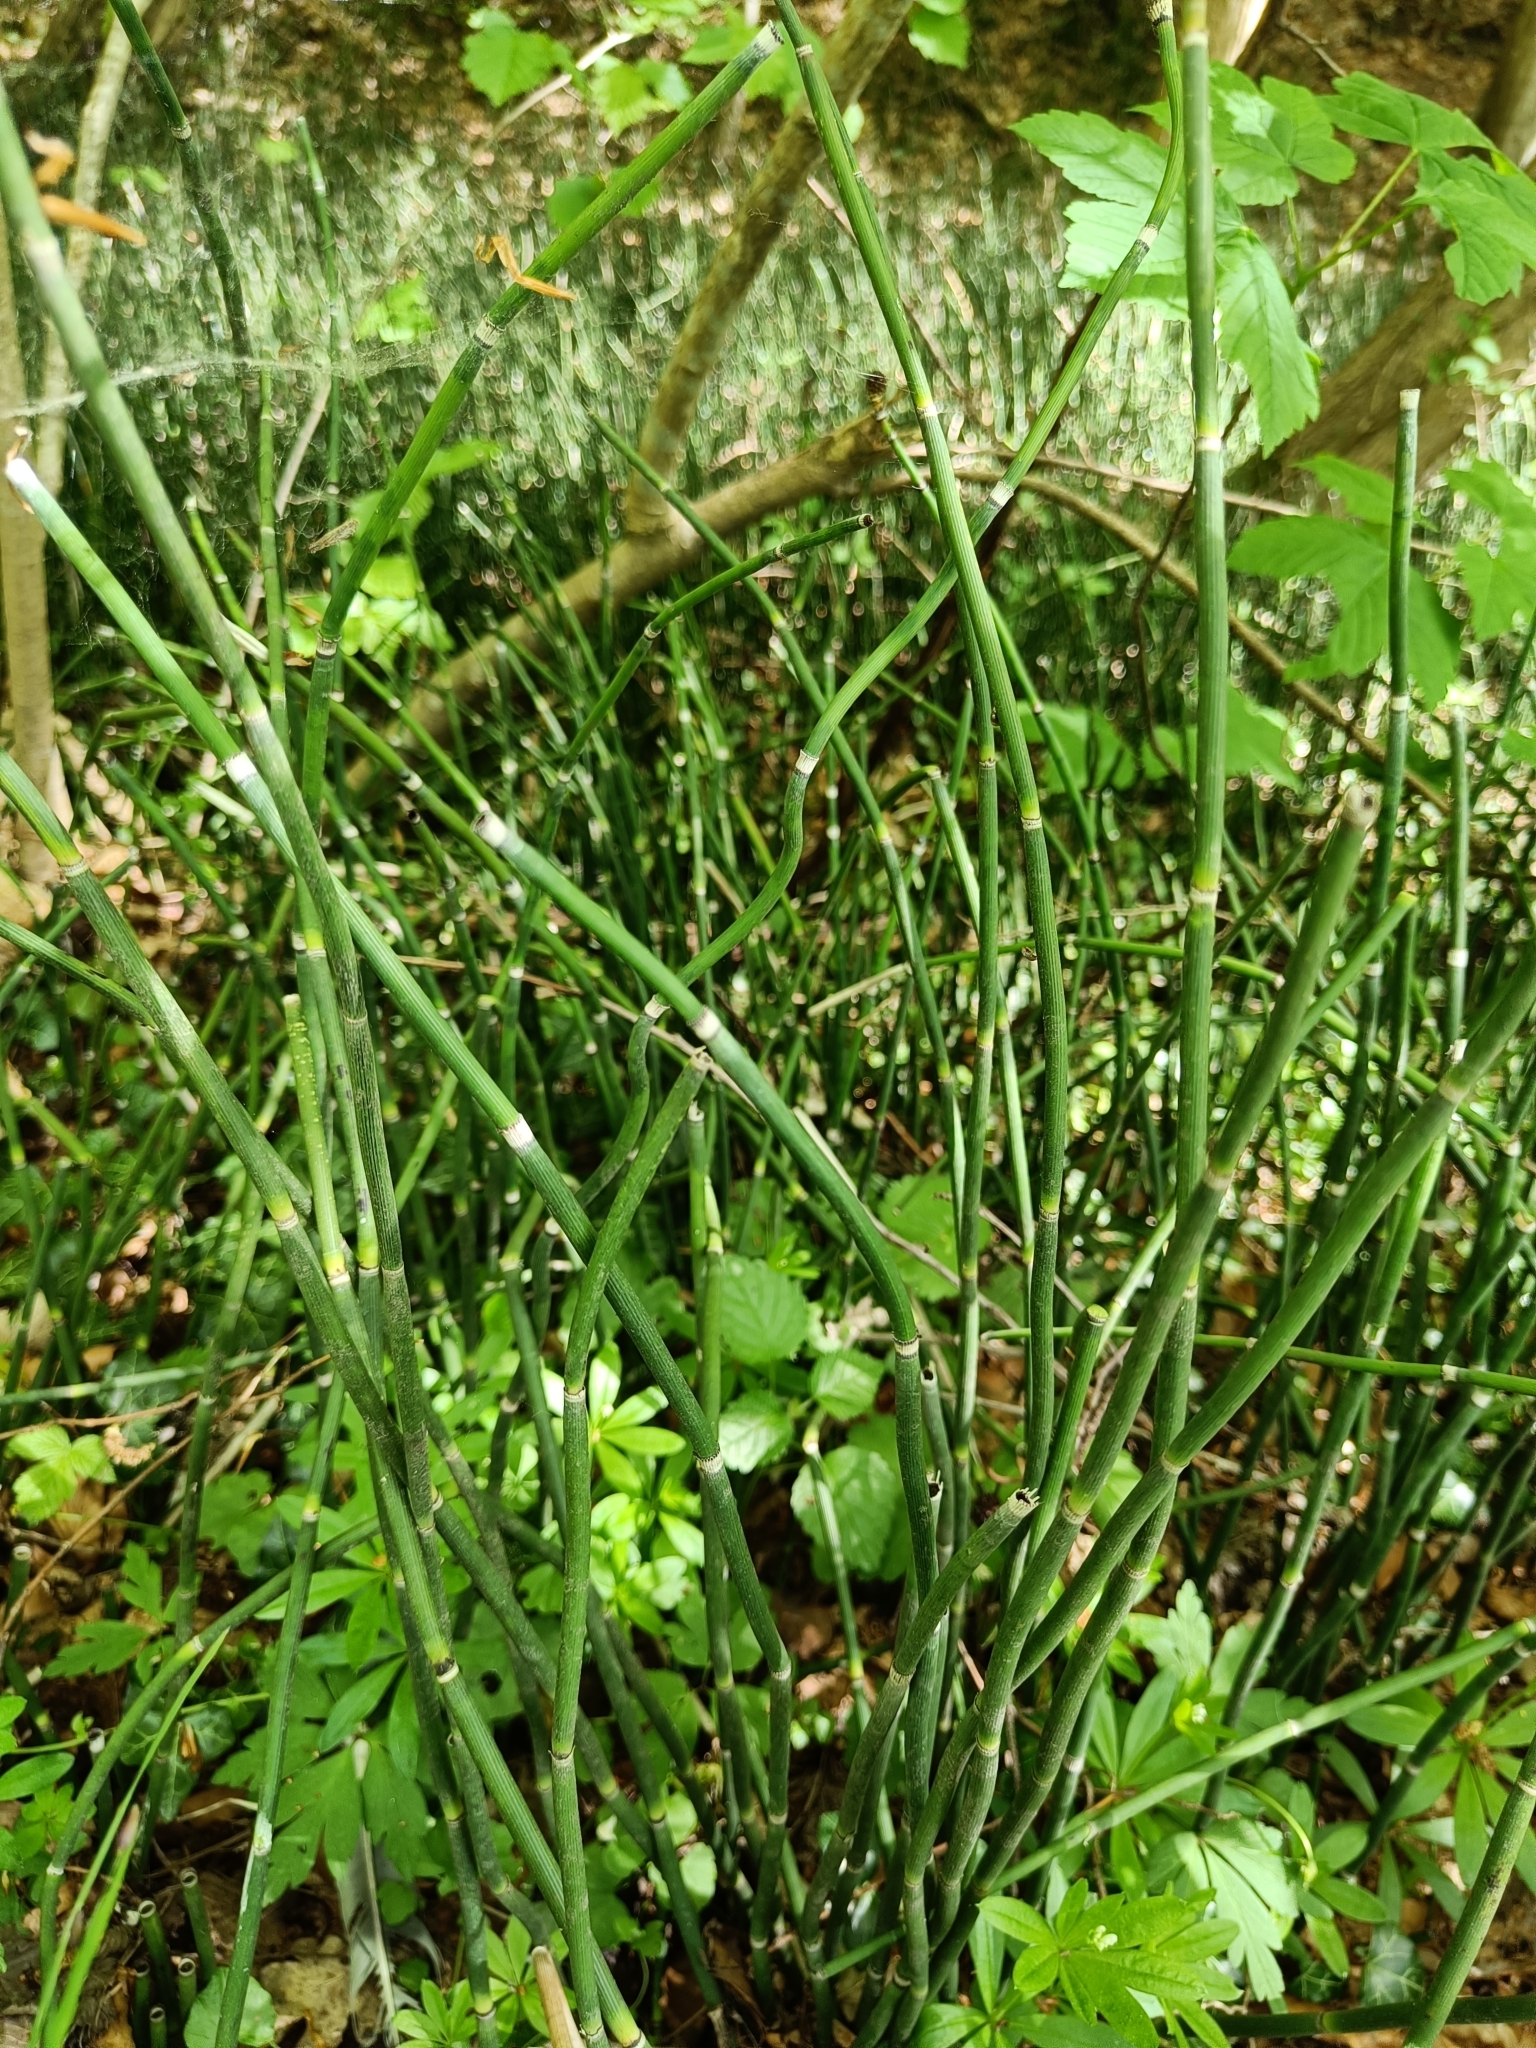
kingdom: Plantae
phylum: Tracheophyta
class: Polypodiopsida
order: Equisetales
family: Equisetaceae
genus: Equisetum
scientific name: Equisetum hyemale
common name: Rough horsetail
